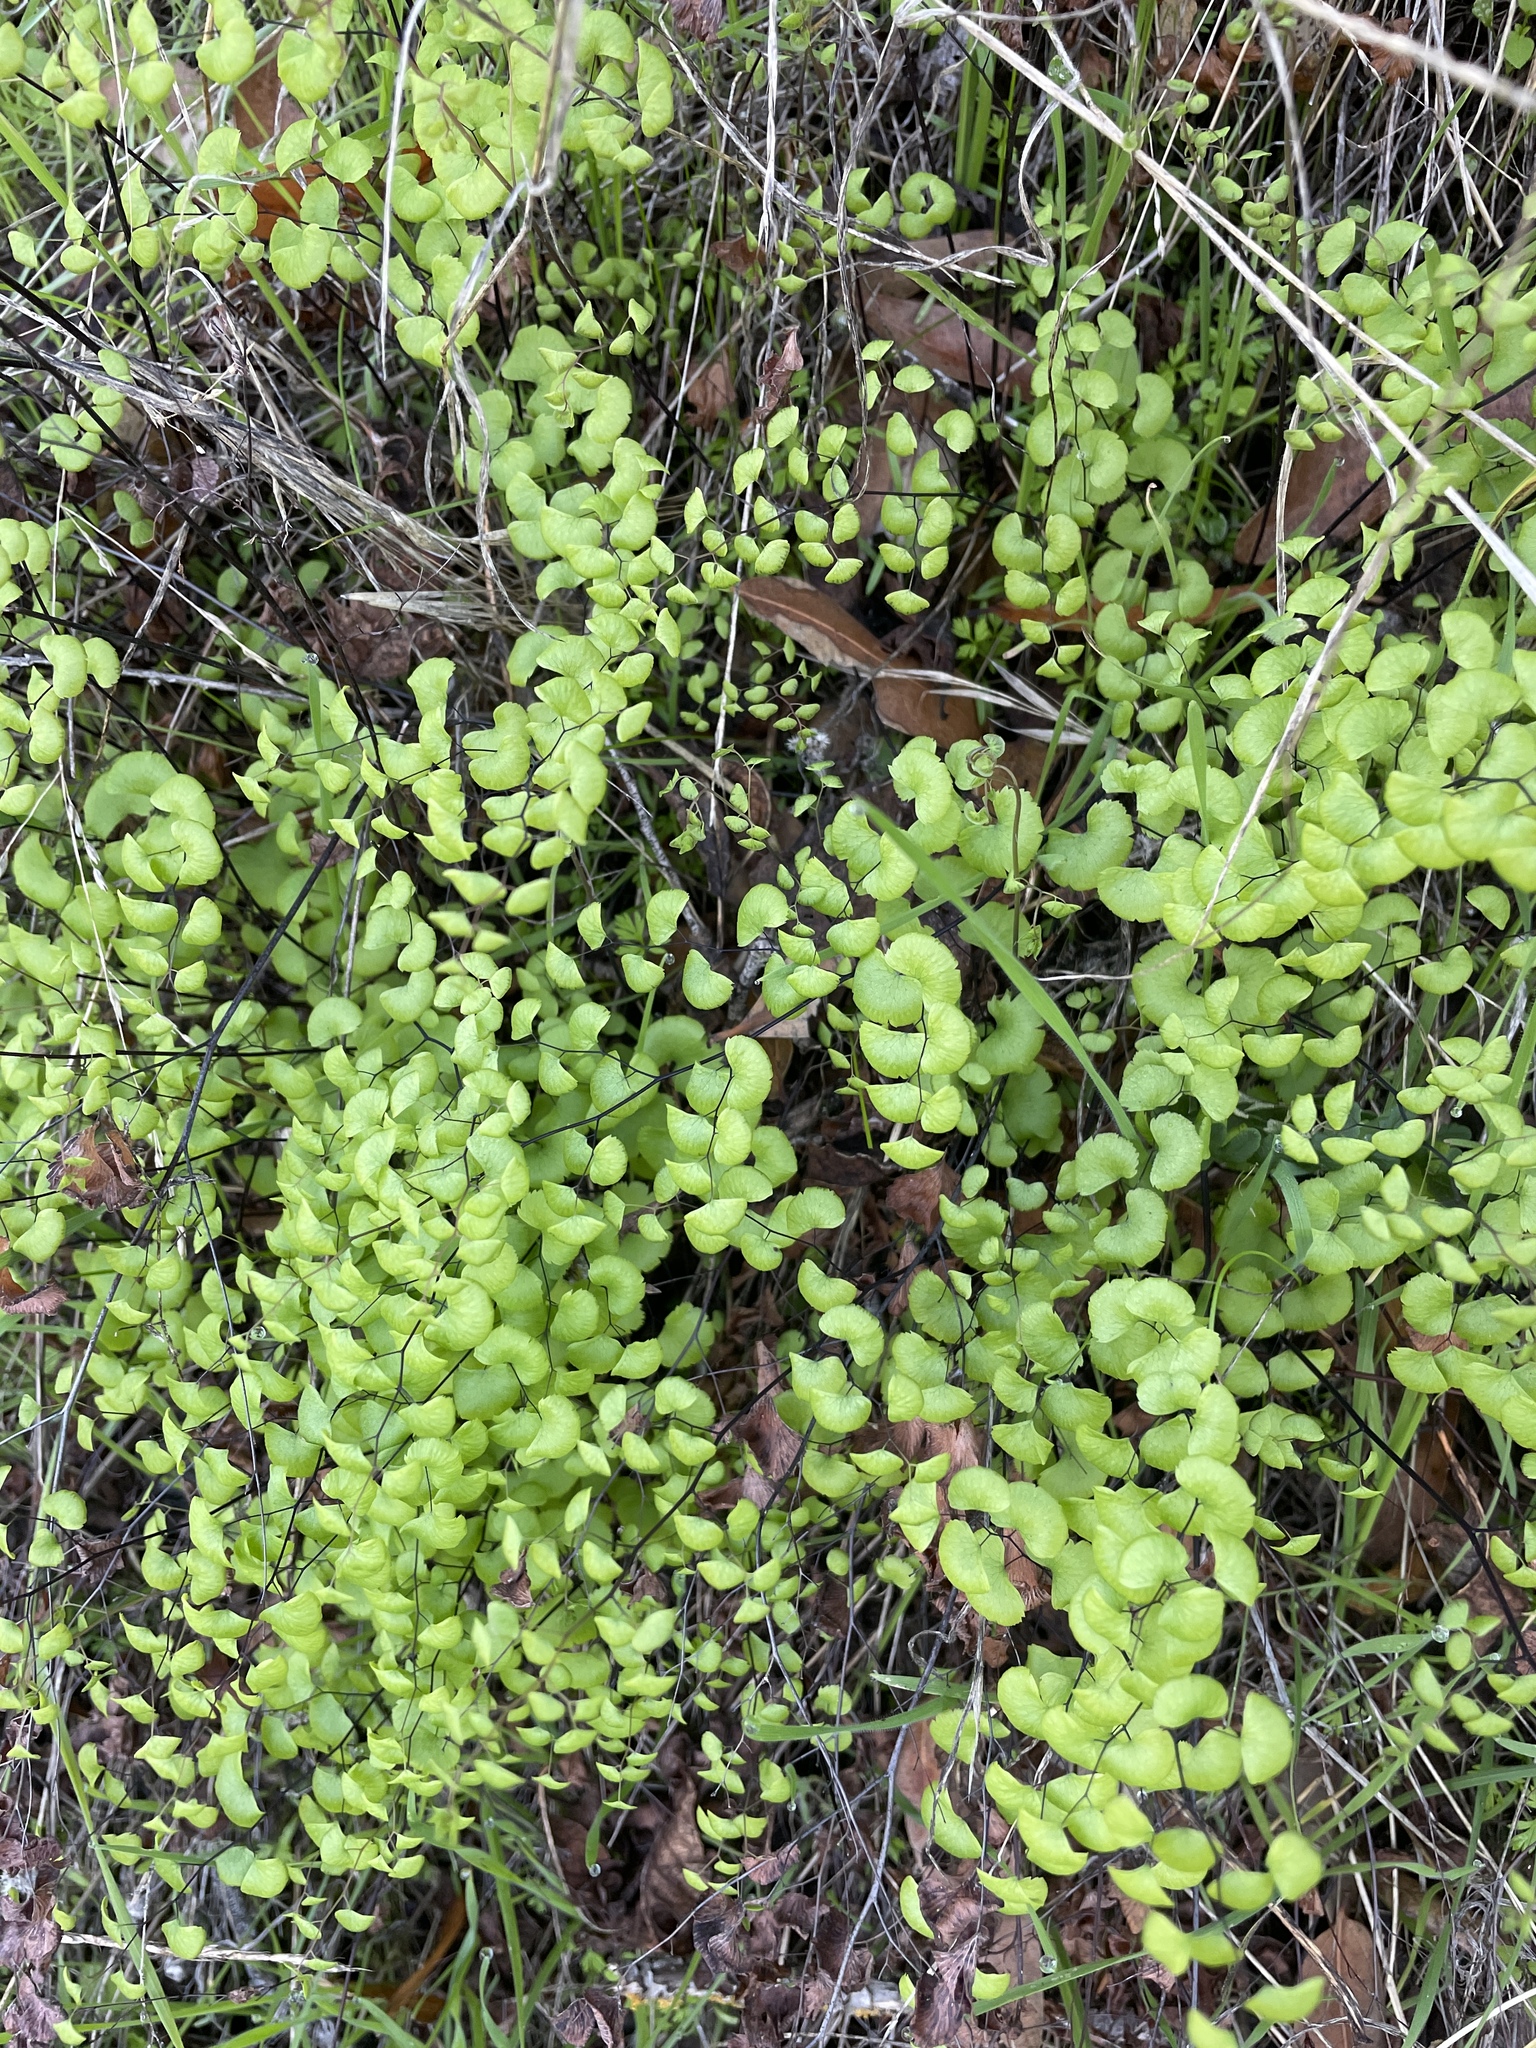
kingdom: Plantae
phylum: Tracheophyta
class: Polypodiopsida
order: Polypodiales
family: Pteridaceae
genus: Adiantum
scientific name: Adiantum jordanii
